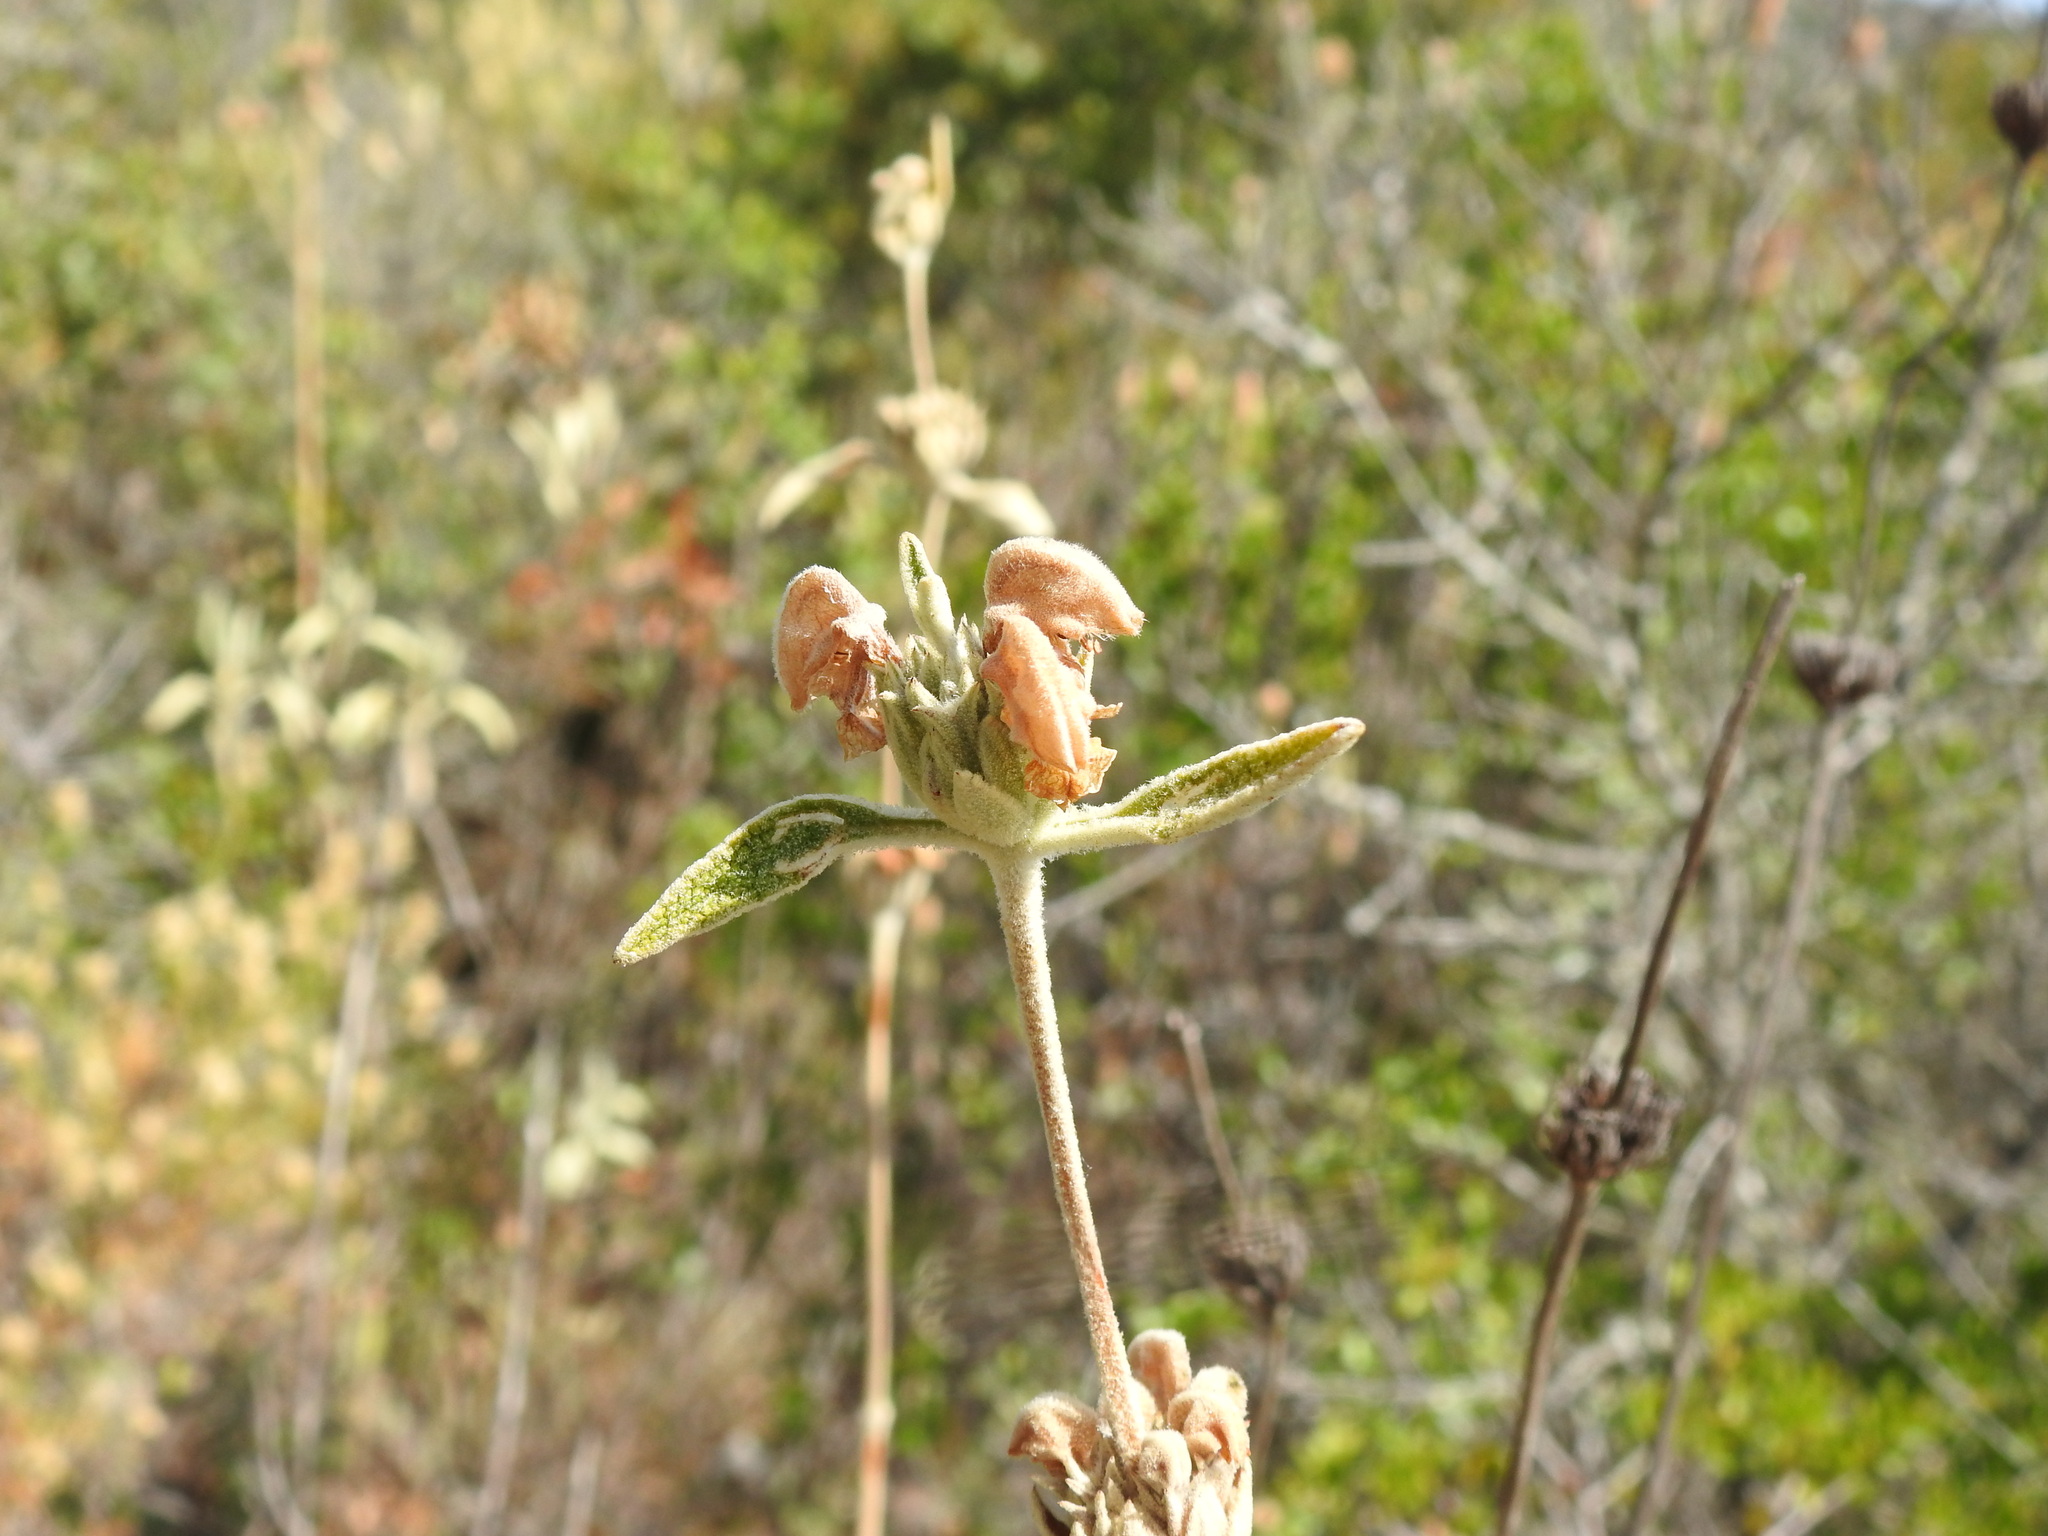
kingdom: Plantae
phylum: Tracheophyta
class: Magnoliopsida
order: Lamiales
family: Lamiaceae
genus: Phlomis
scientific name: Phlomis purpurea
